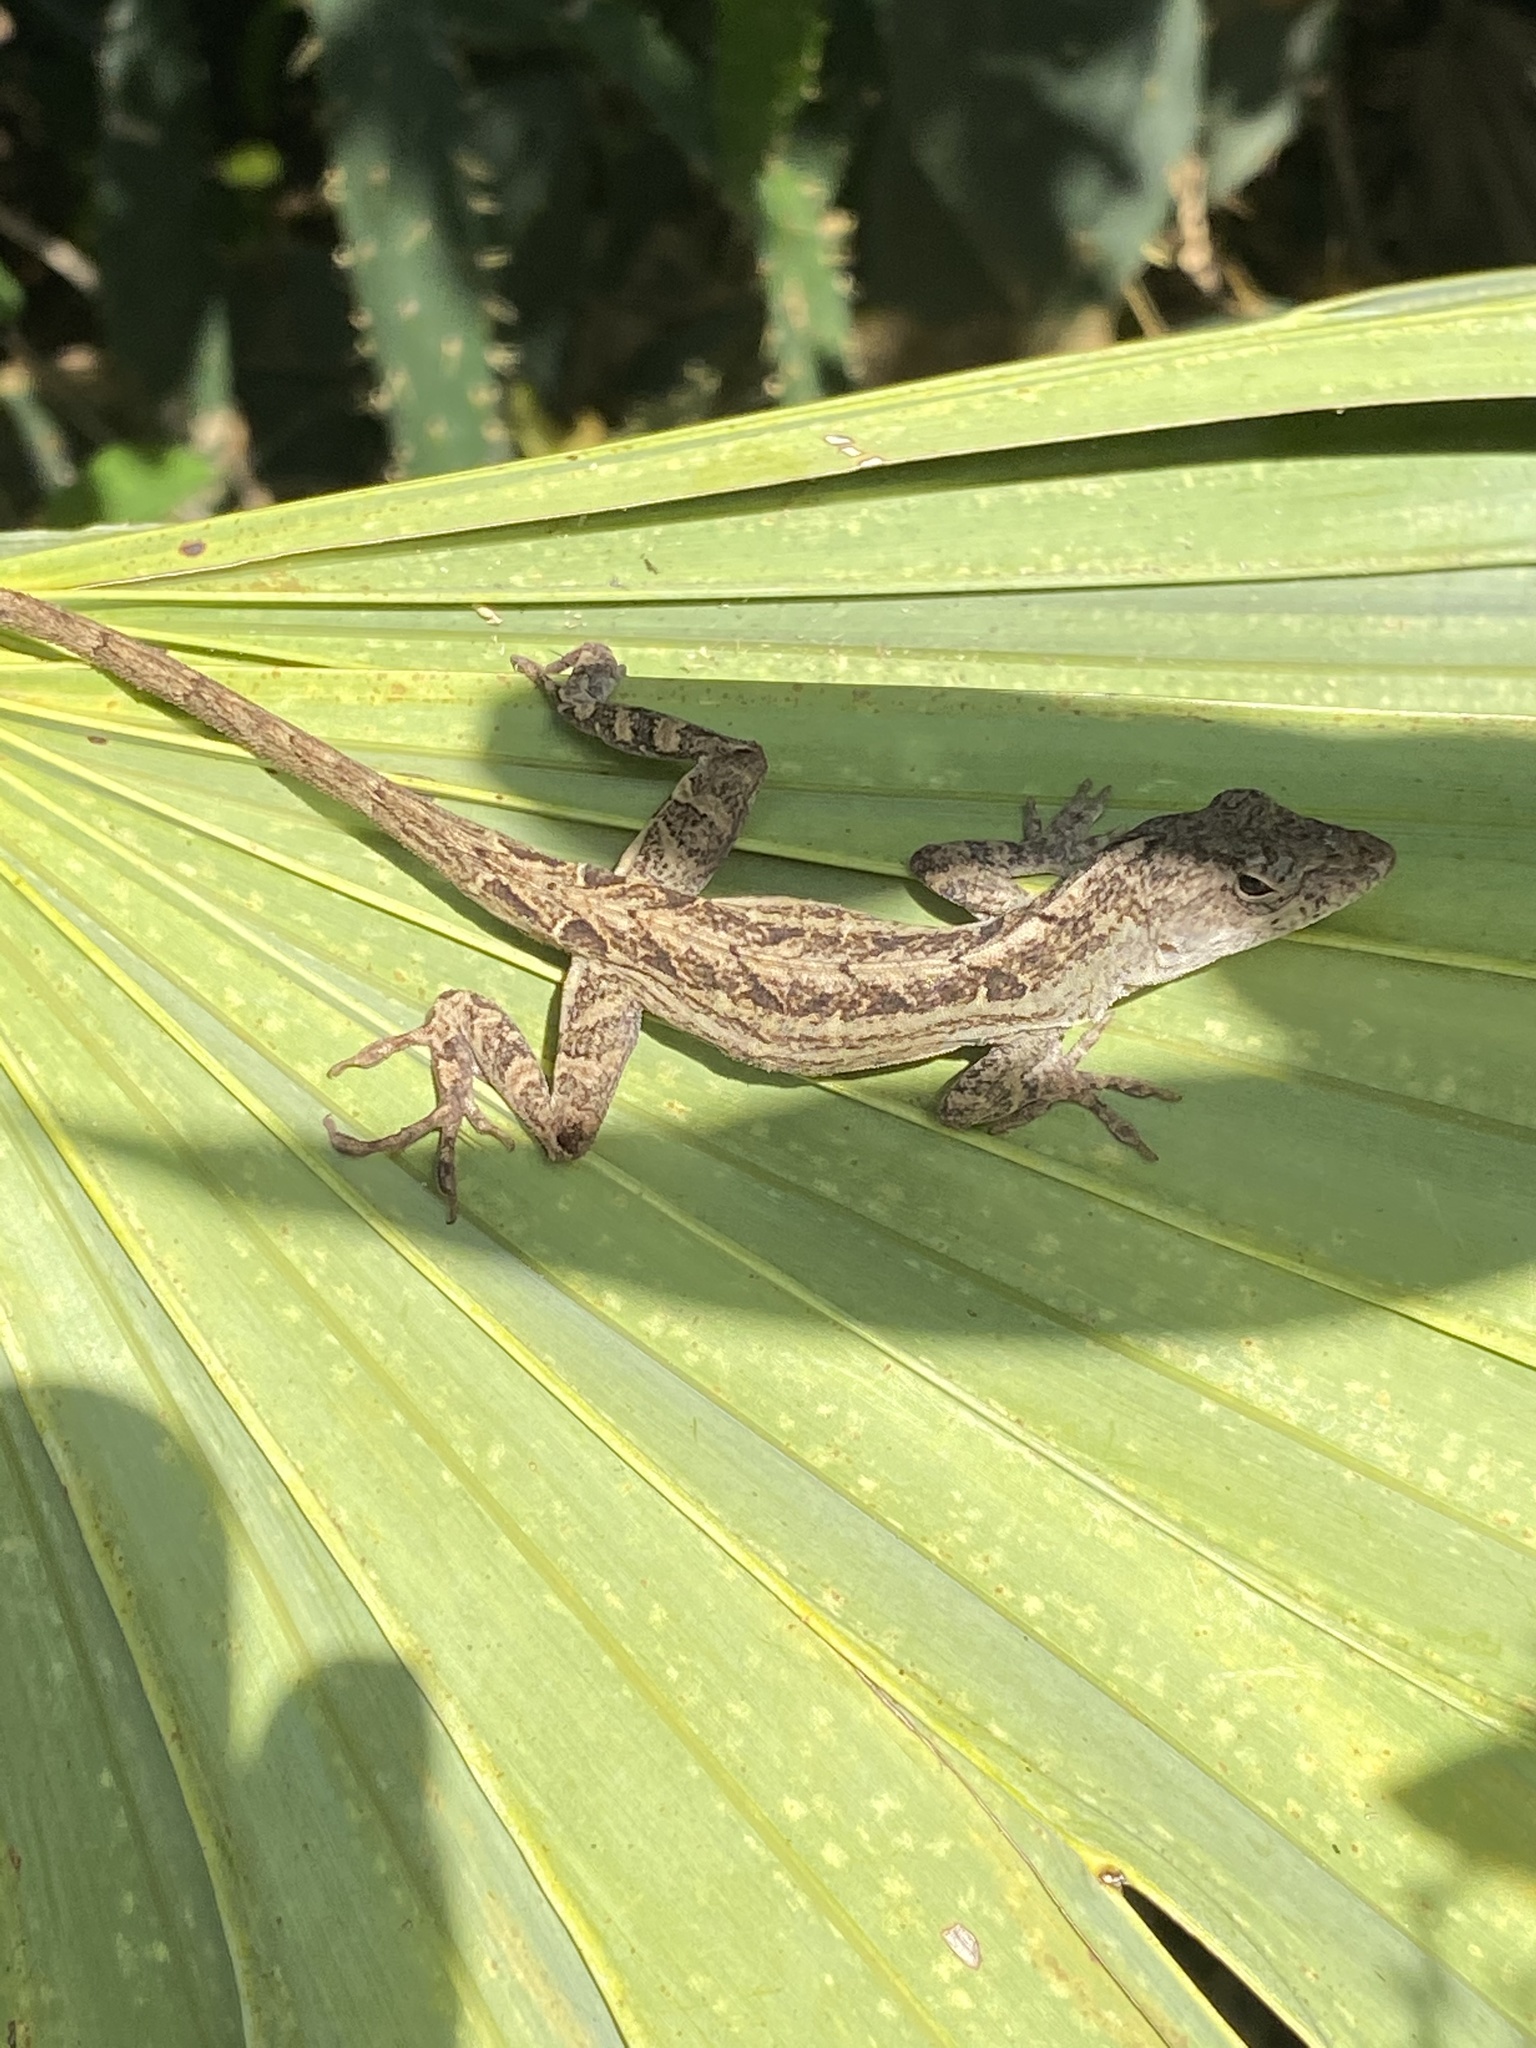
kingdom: Animalia
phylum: Chordata
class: Squamata
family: Dactyloidae
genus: Anolis
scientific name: Anolis sagrei
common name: Brown anole
